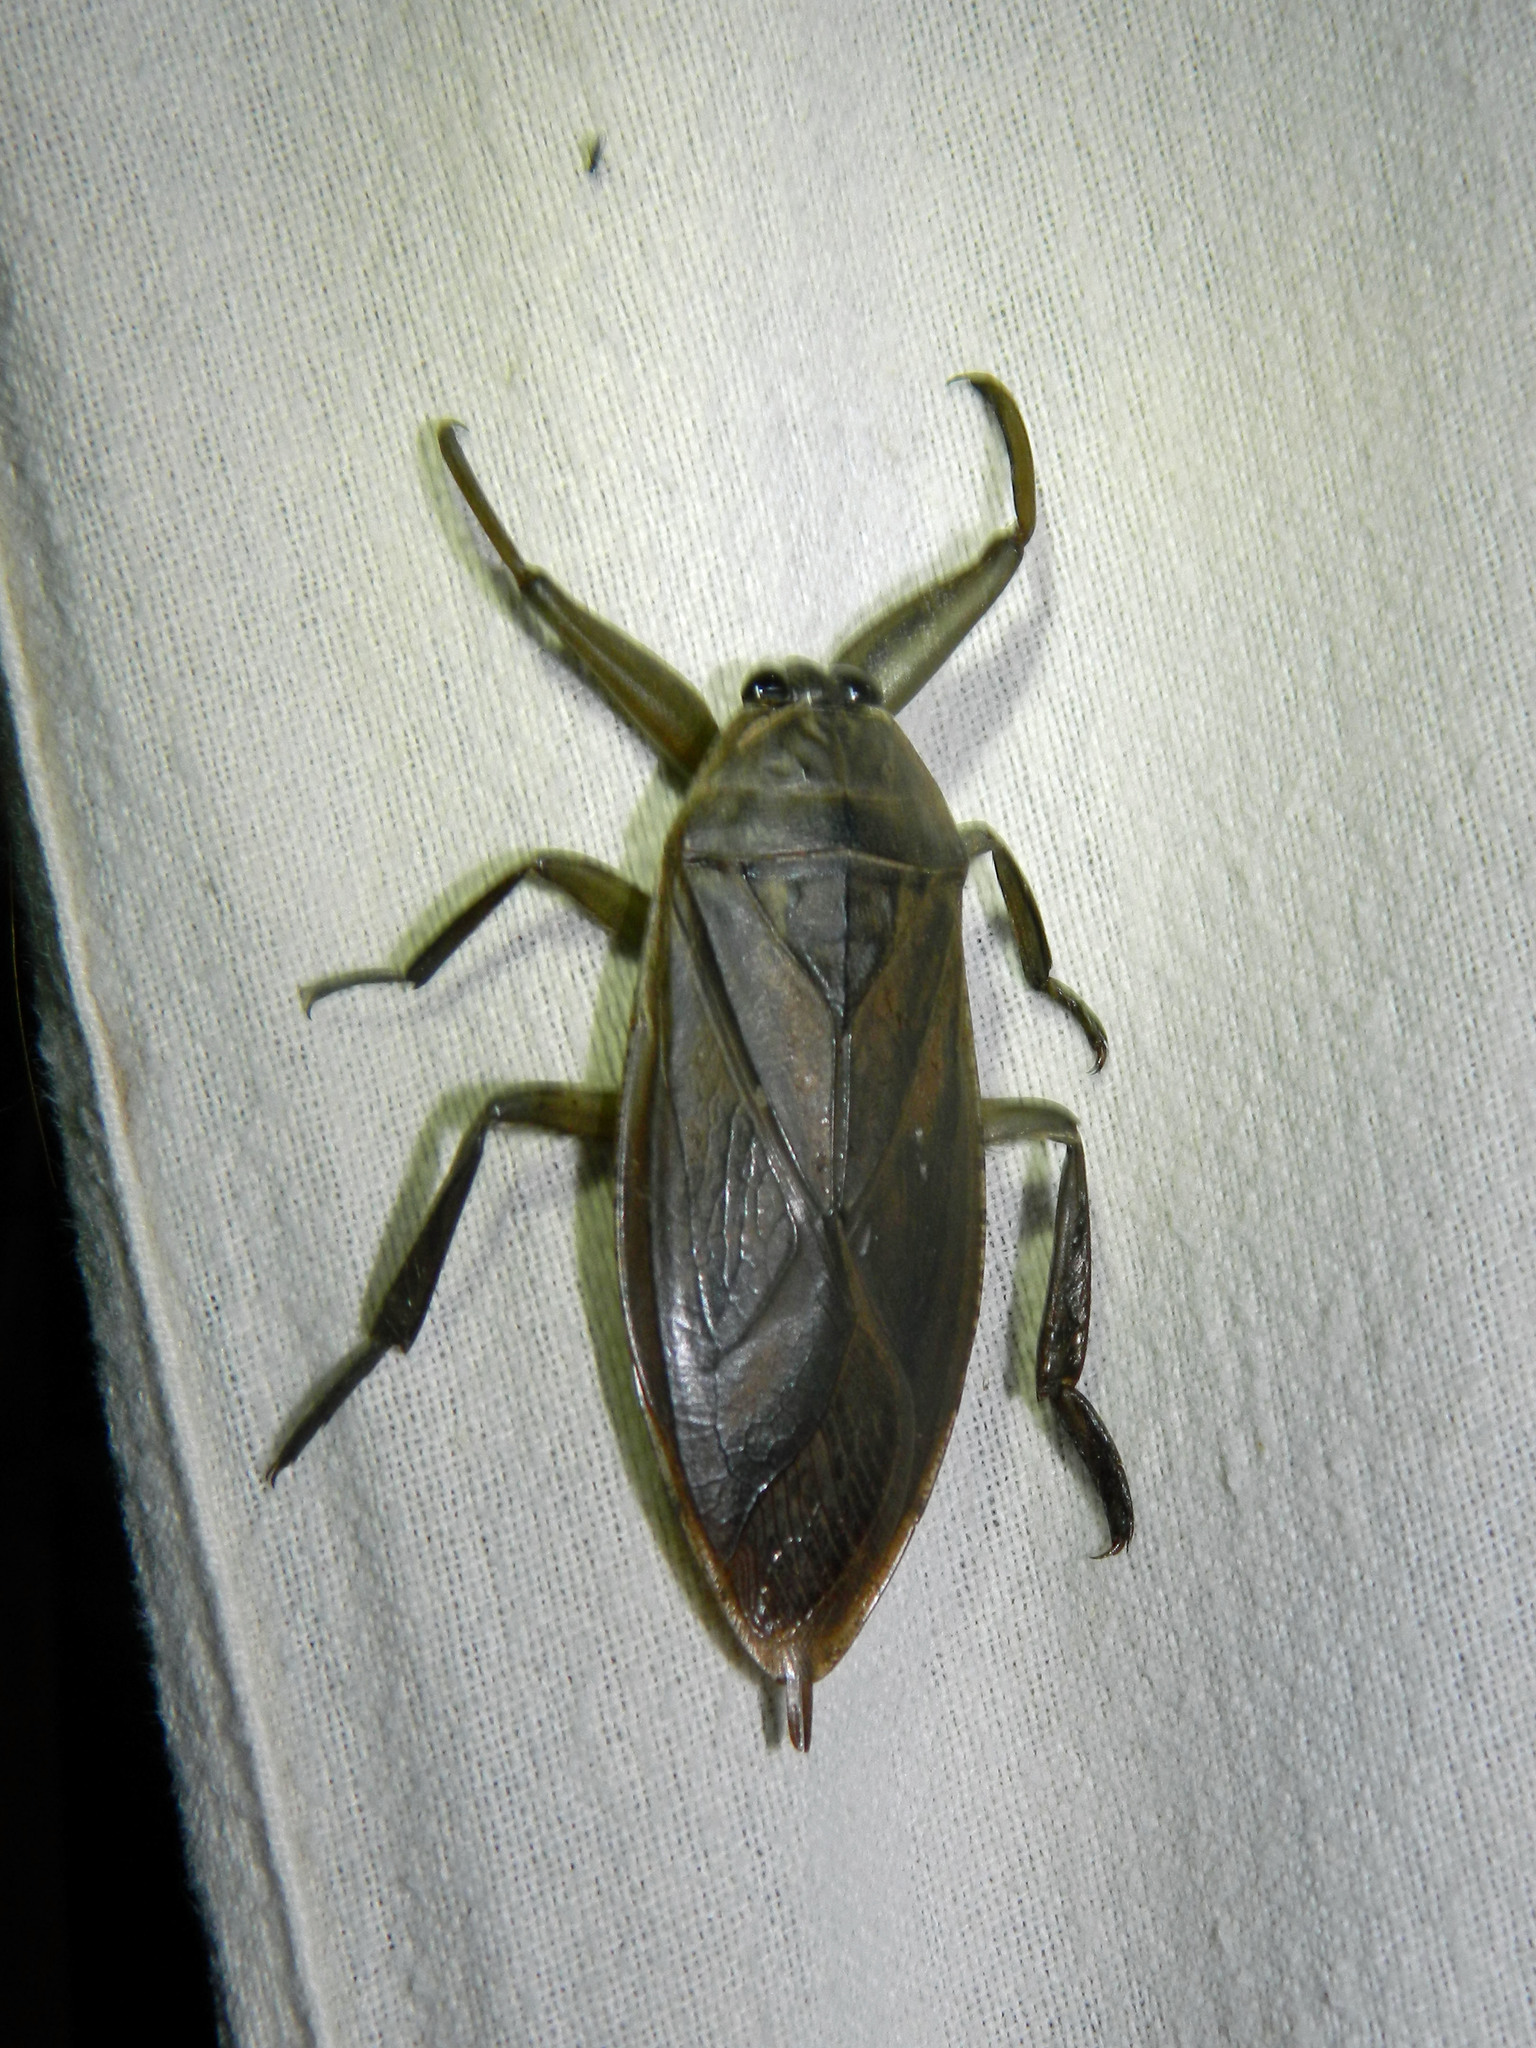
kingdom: Animalia
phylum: Arthropoda
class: Insecta
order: Hemiptera
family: Belostomatidae
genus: Lethocerus
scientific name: Lethocerus americanus
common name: Giant water bug
